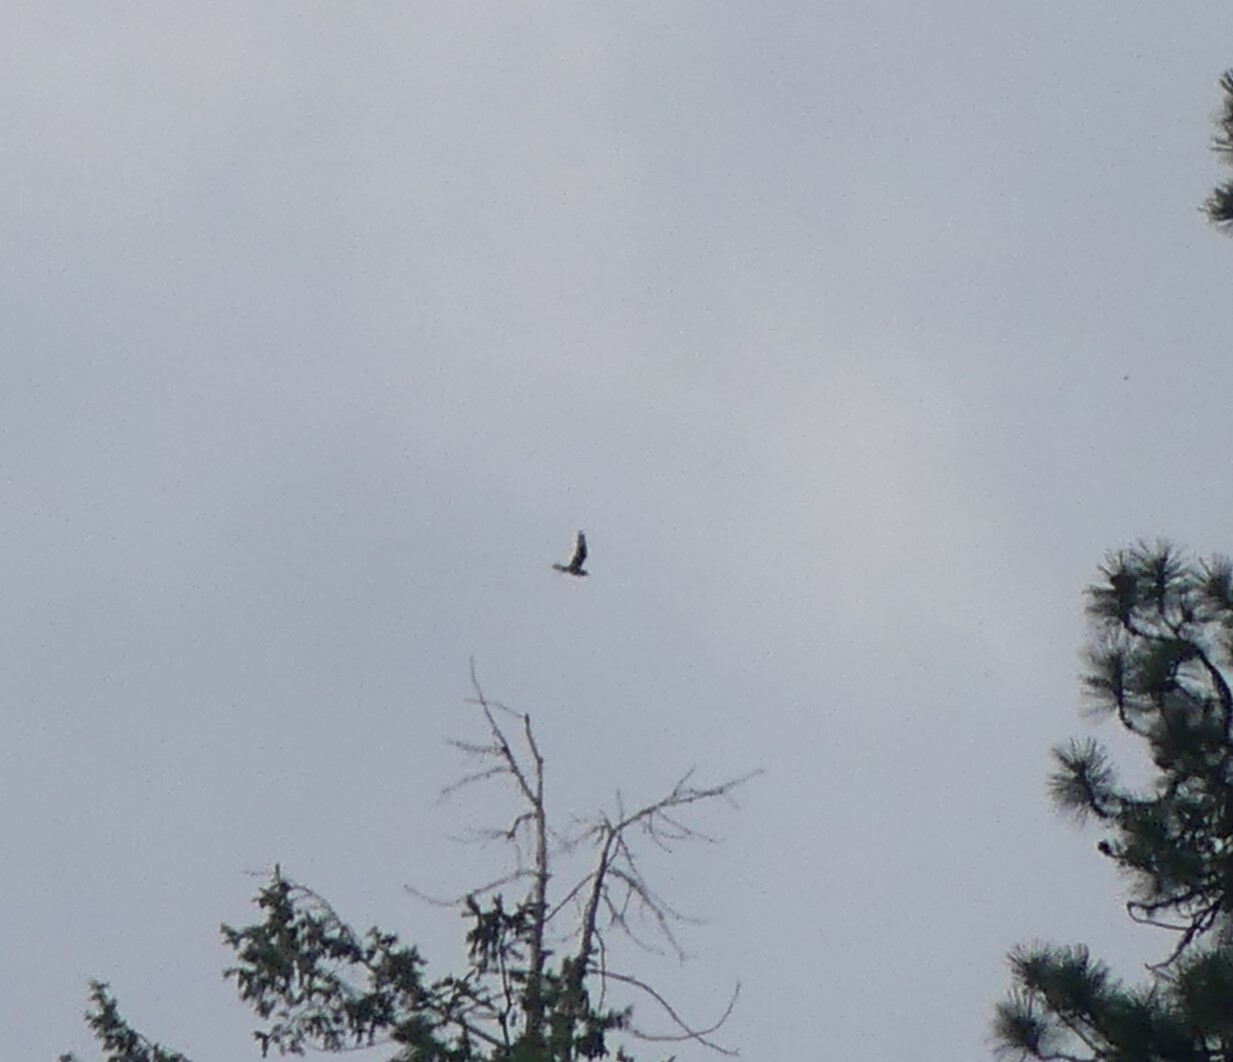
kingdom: Animalia
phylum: Chordata
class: Aves
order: Caprimulgiformes
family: Caprimulgidae
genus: Chordeiles
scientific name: Chordeiles minor
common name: Common nighthawk
